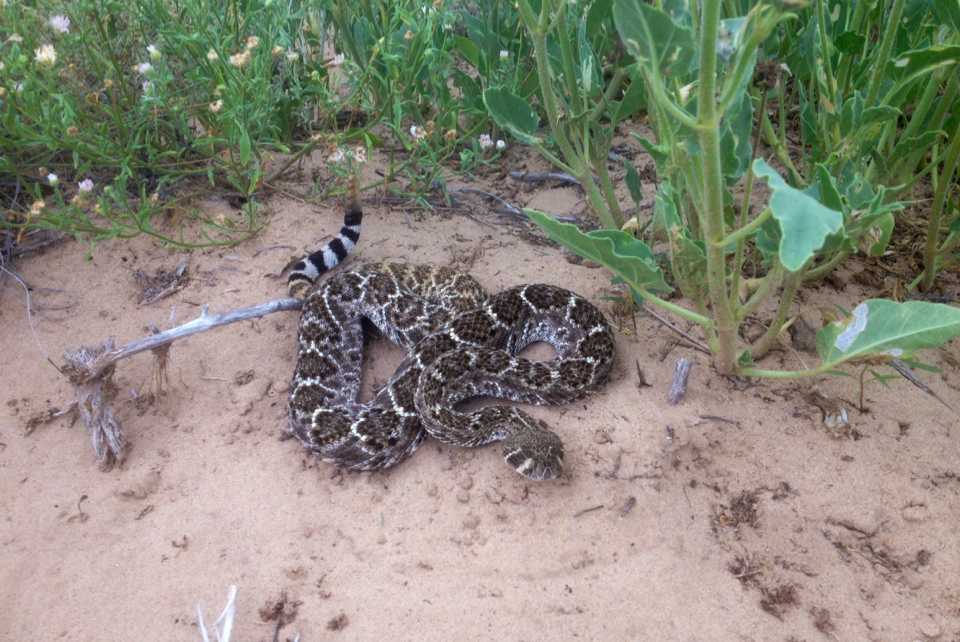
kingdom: Animalia
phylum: Chordata
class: Squamata
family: Viperidae
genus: Crotalus
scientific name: Crotalus atrox
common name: Western diamond-backed rattlesnake
